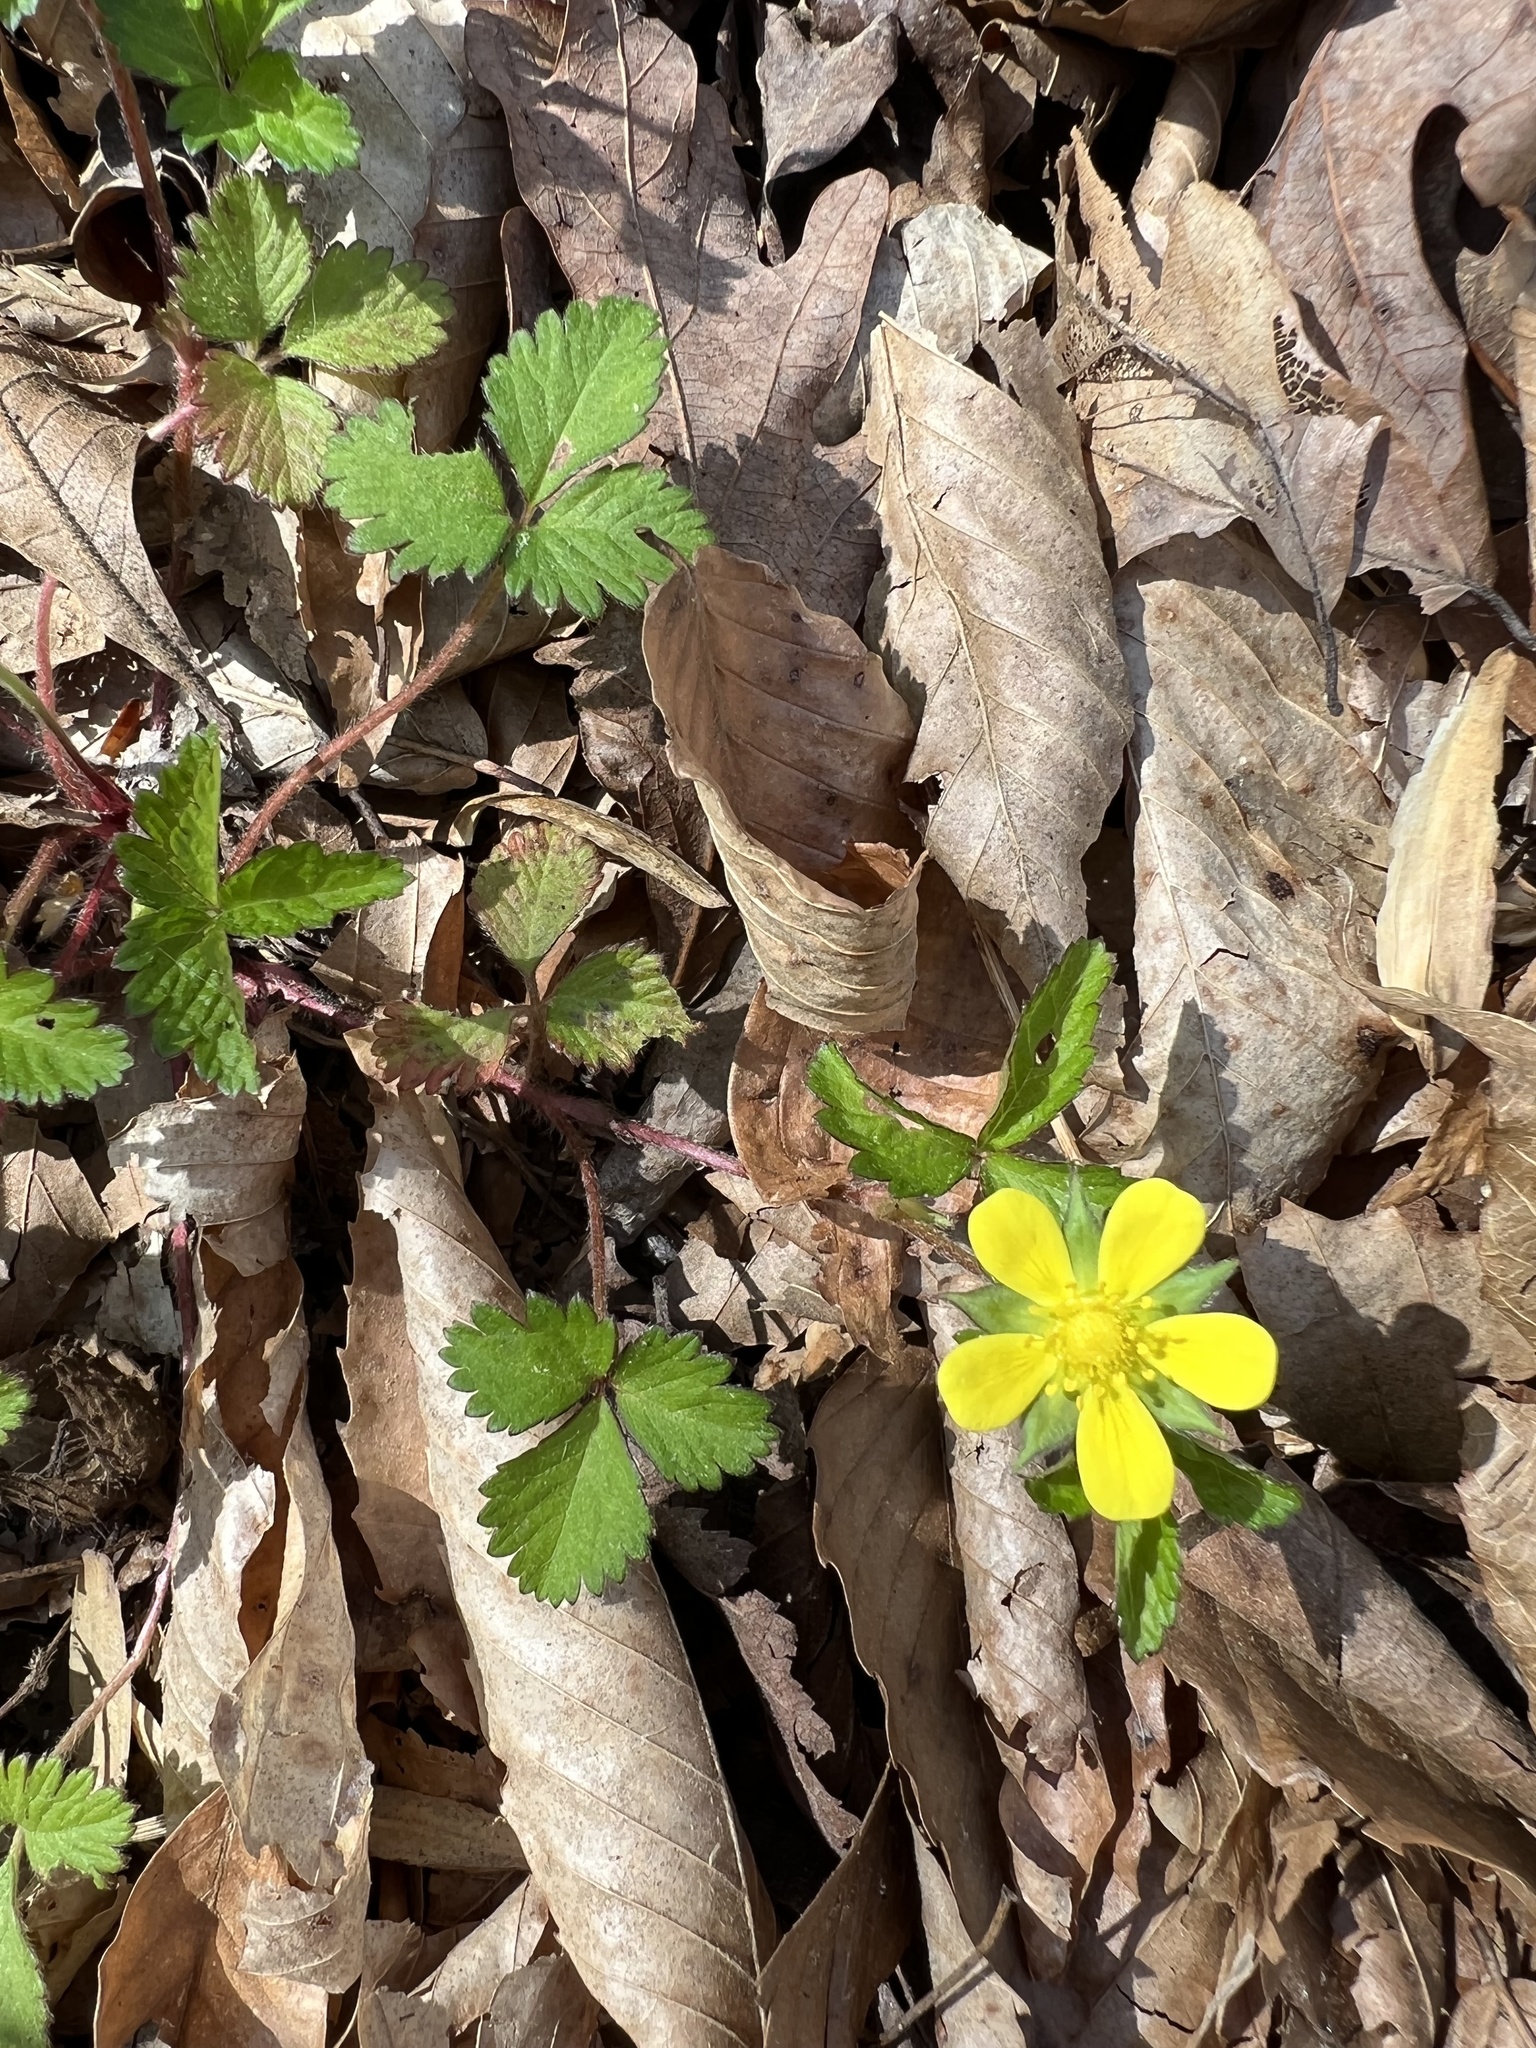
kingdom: Plantae
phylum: Tracheophyta
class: Magnoliopsida
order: Rosales
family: Rosaceae
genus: Potentilla
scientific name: Potentilla indica
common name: Yellow-flowered strawberry
